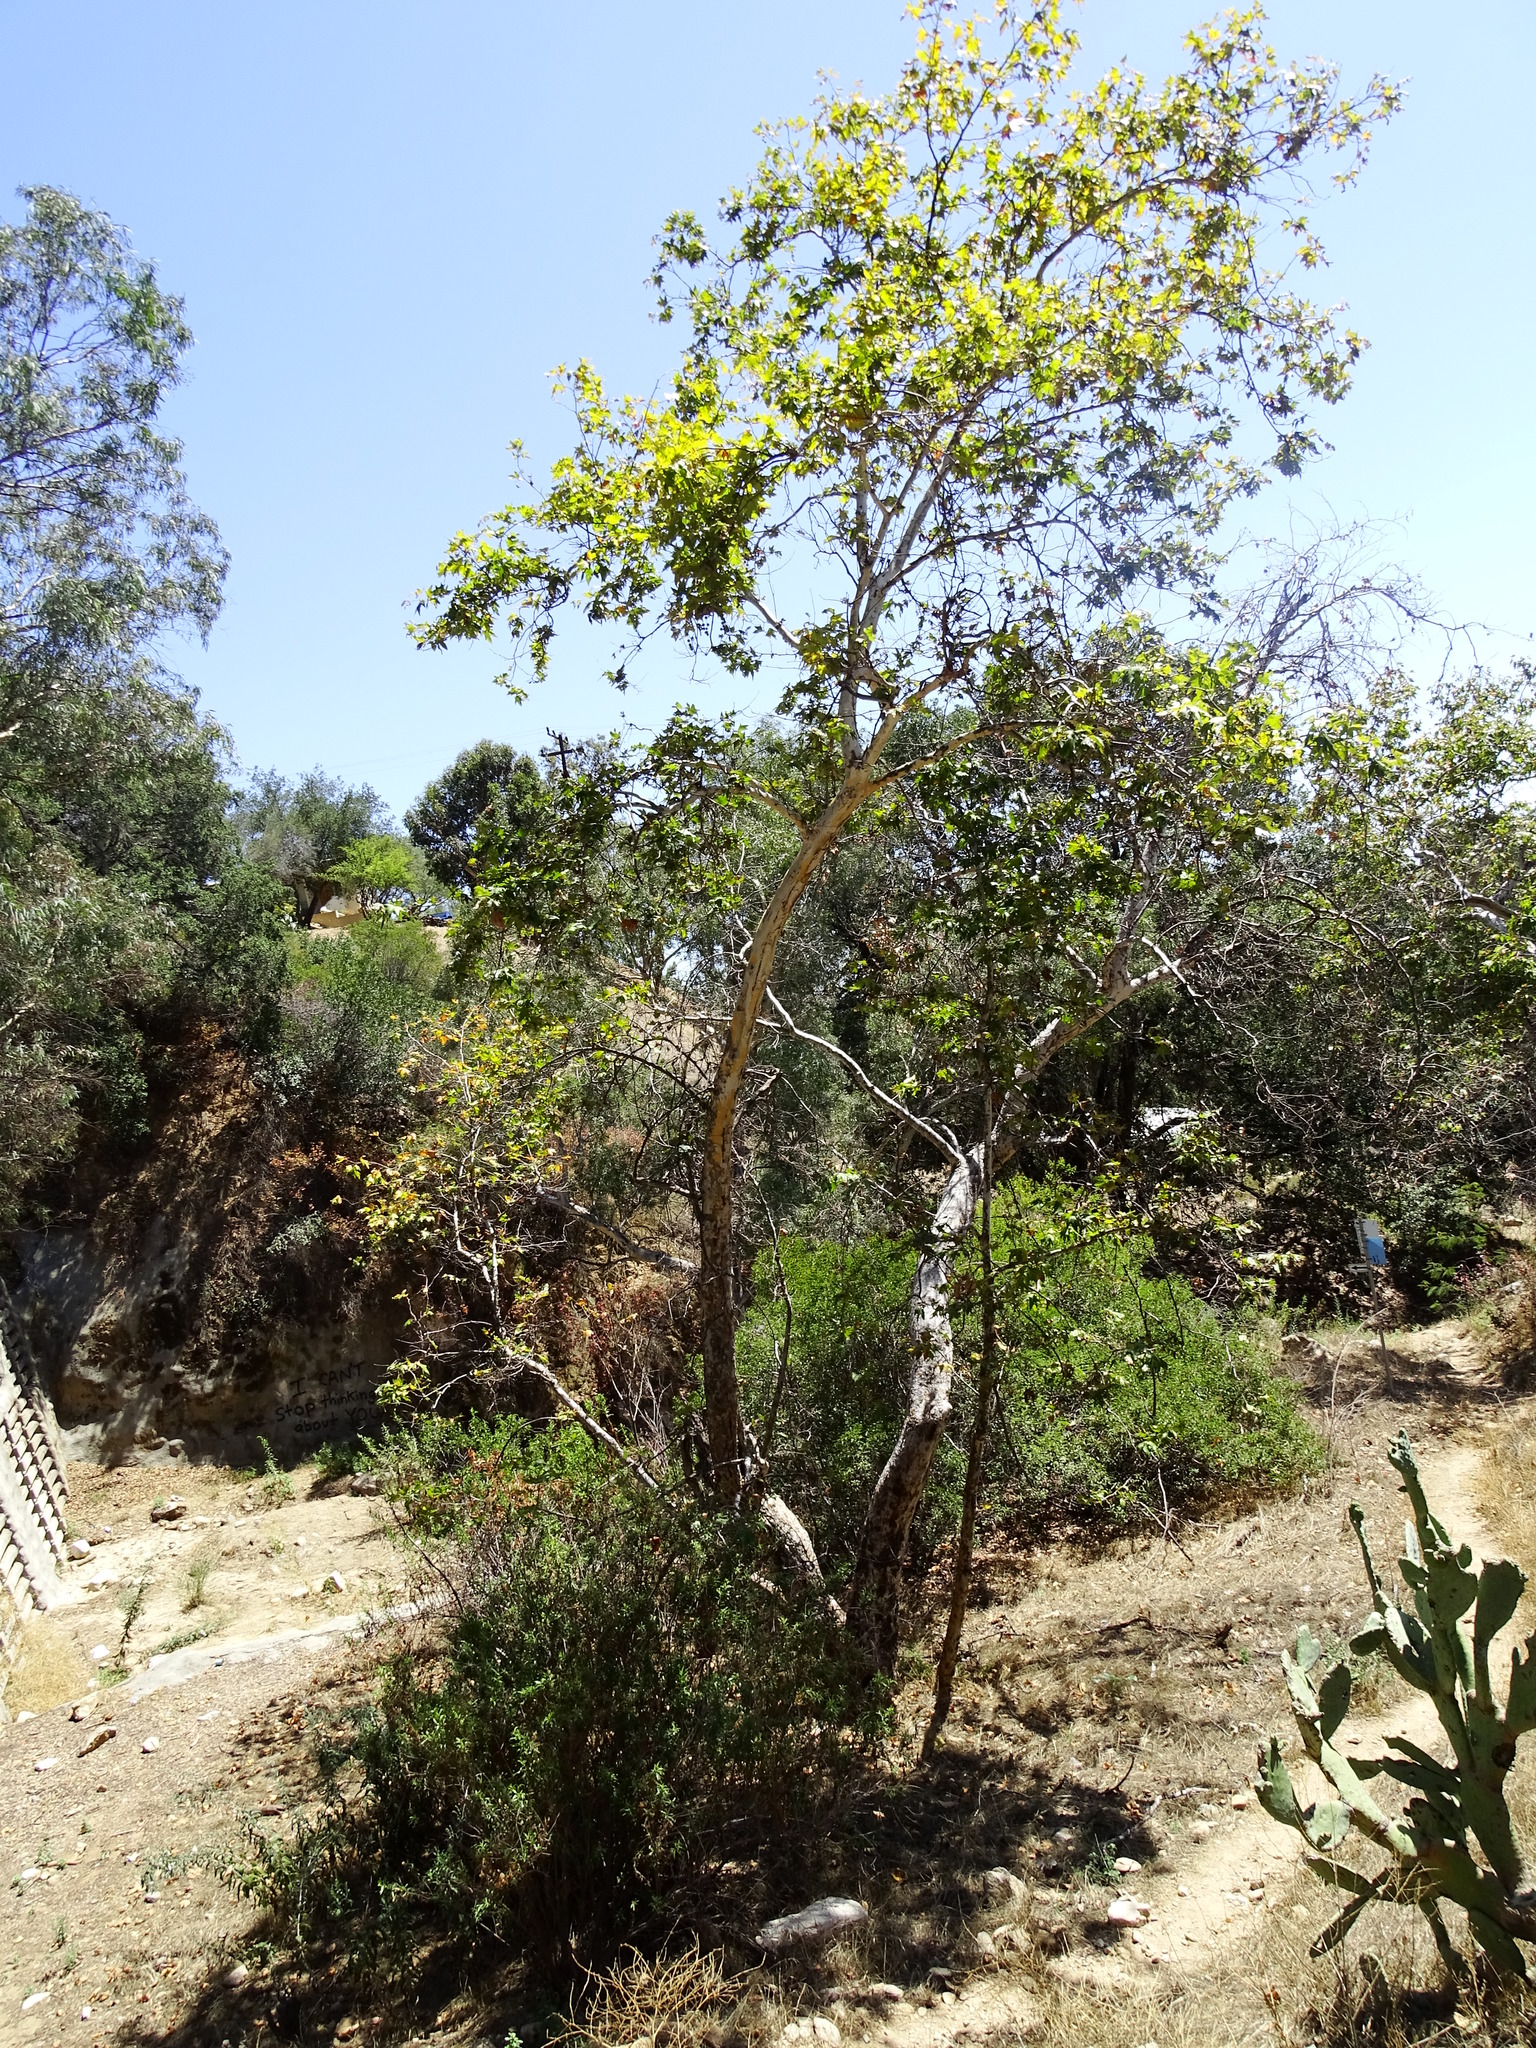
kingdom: Plantae
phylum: Tracheophyta
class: Magnoliopsida
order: Proteales
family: Platanaceae
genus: Platanus
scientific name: Platanus racemosa
